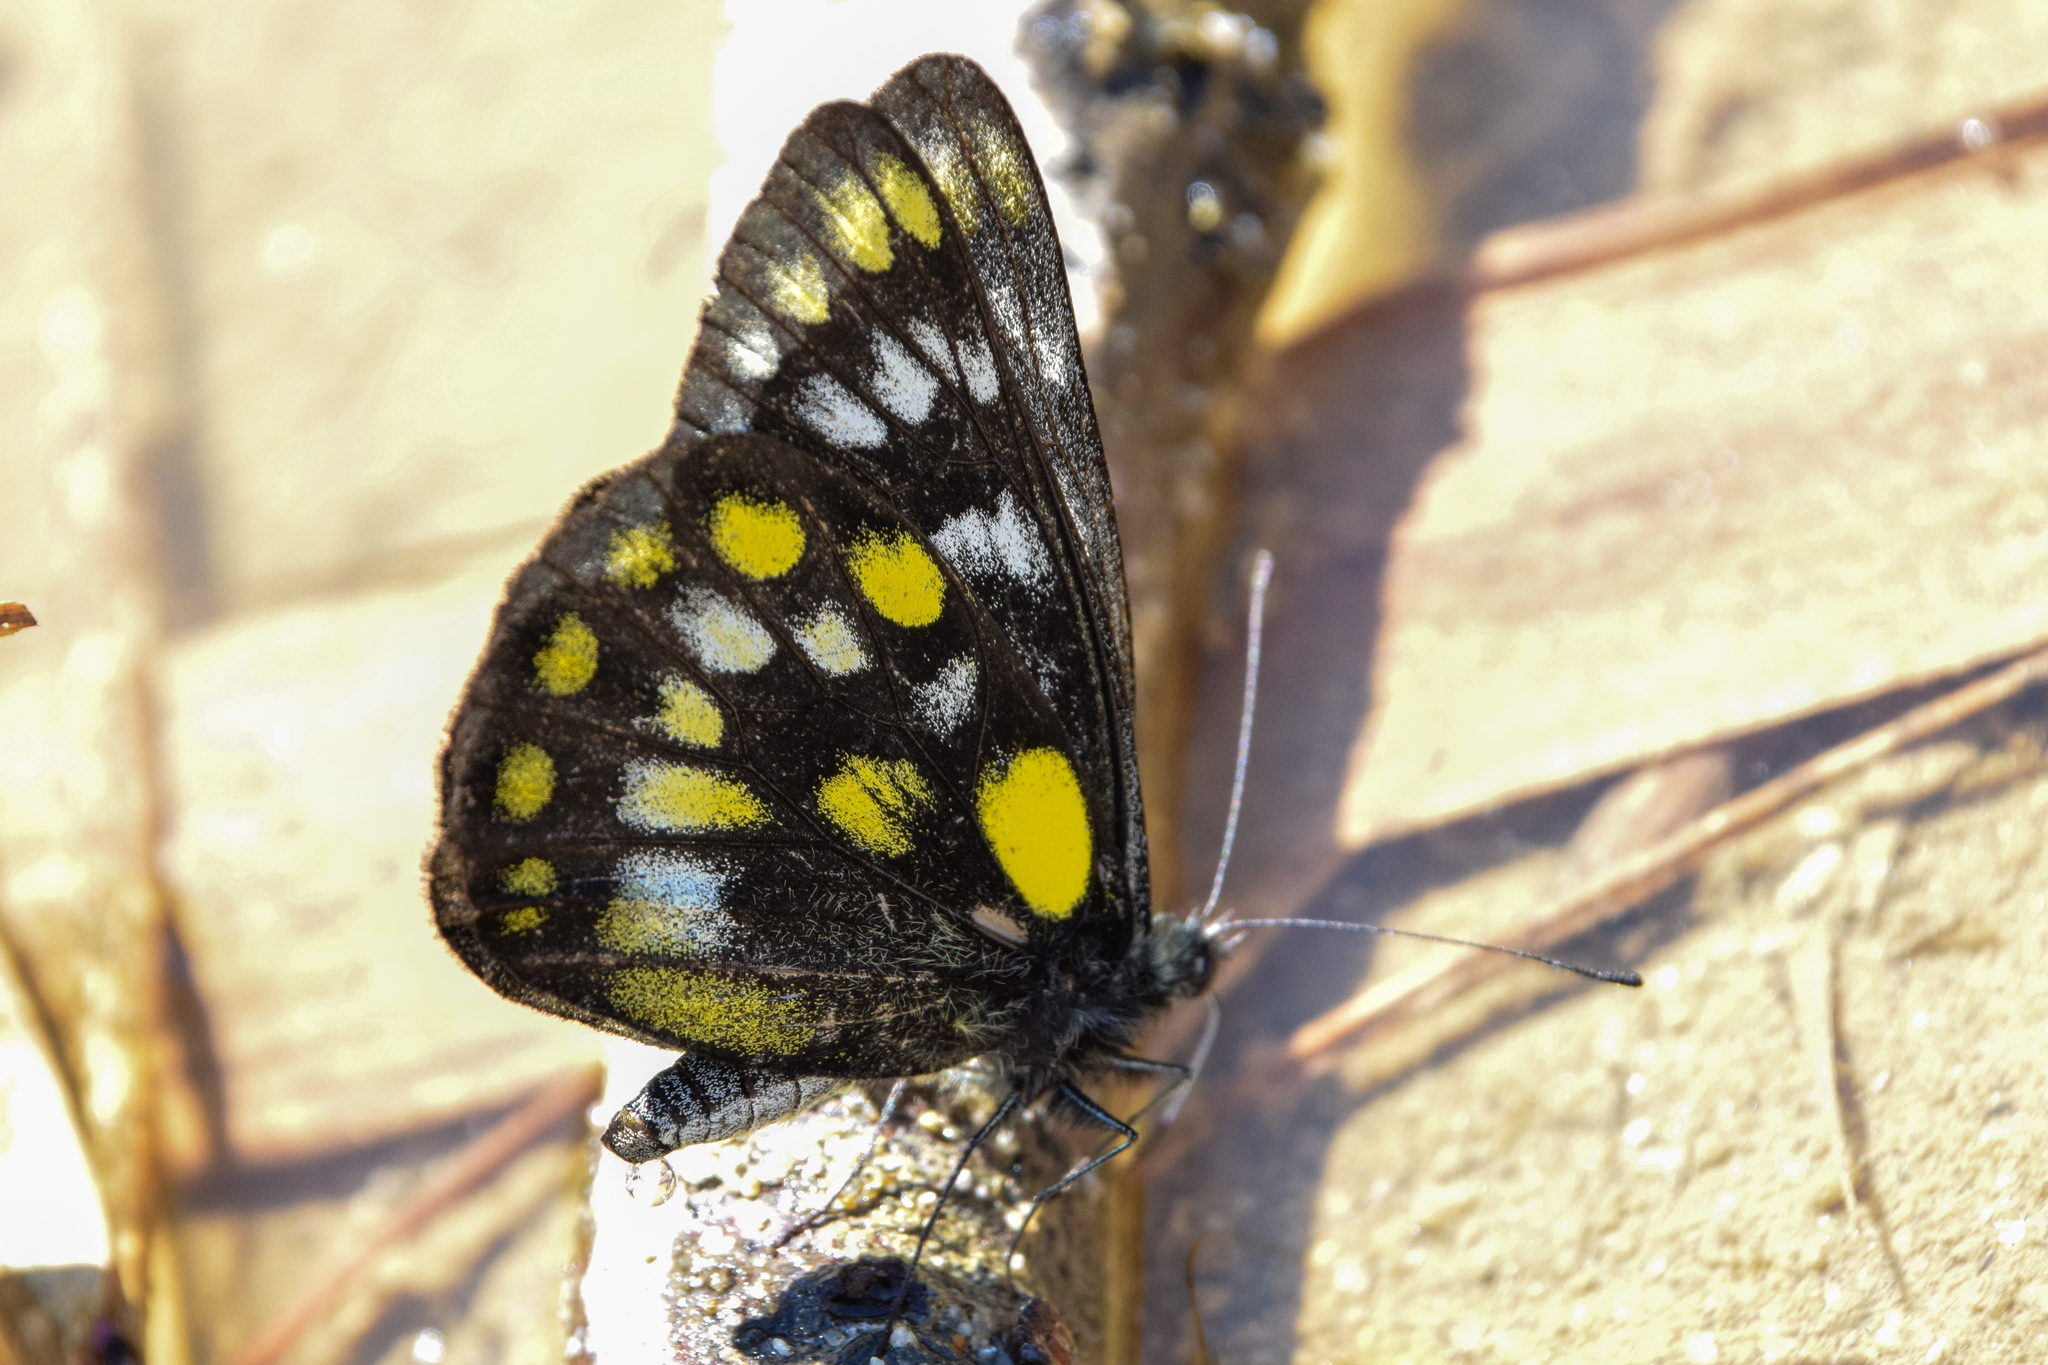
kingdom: Animalia
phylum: Arthropoda
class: Insecta
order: Lepidoptera
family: Pieridae
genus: Delias
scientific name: Delias surprisa
